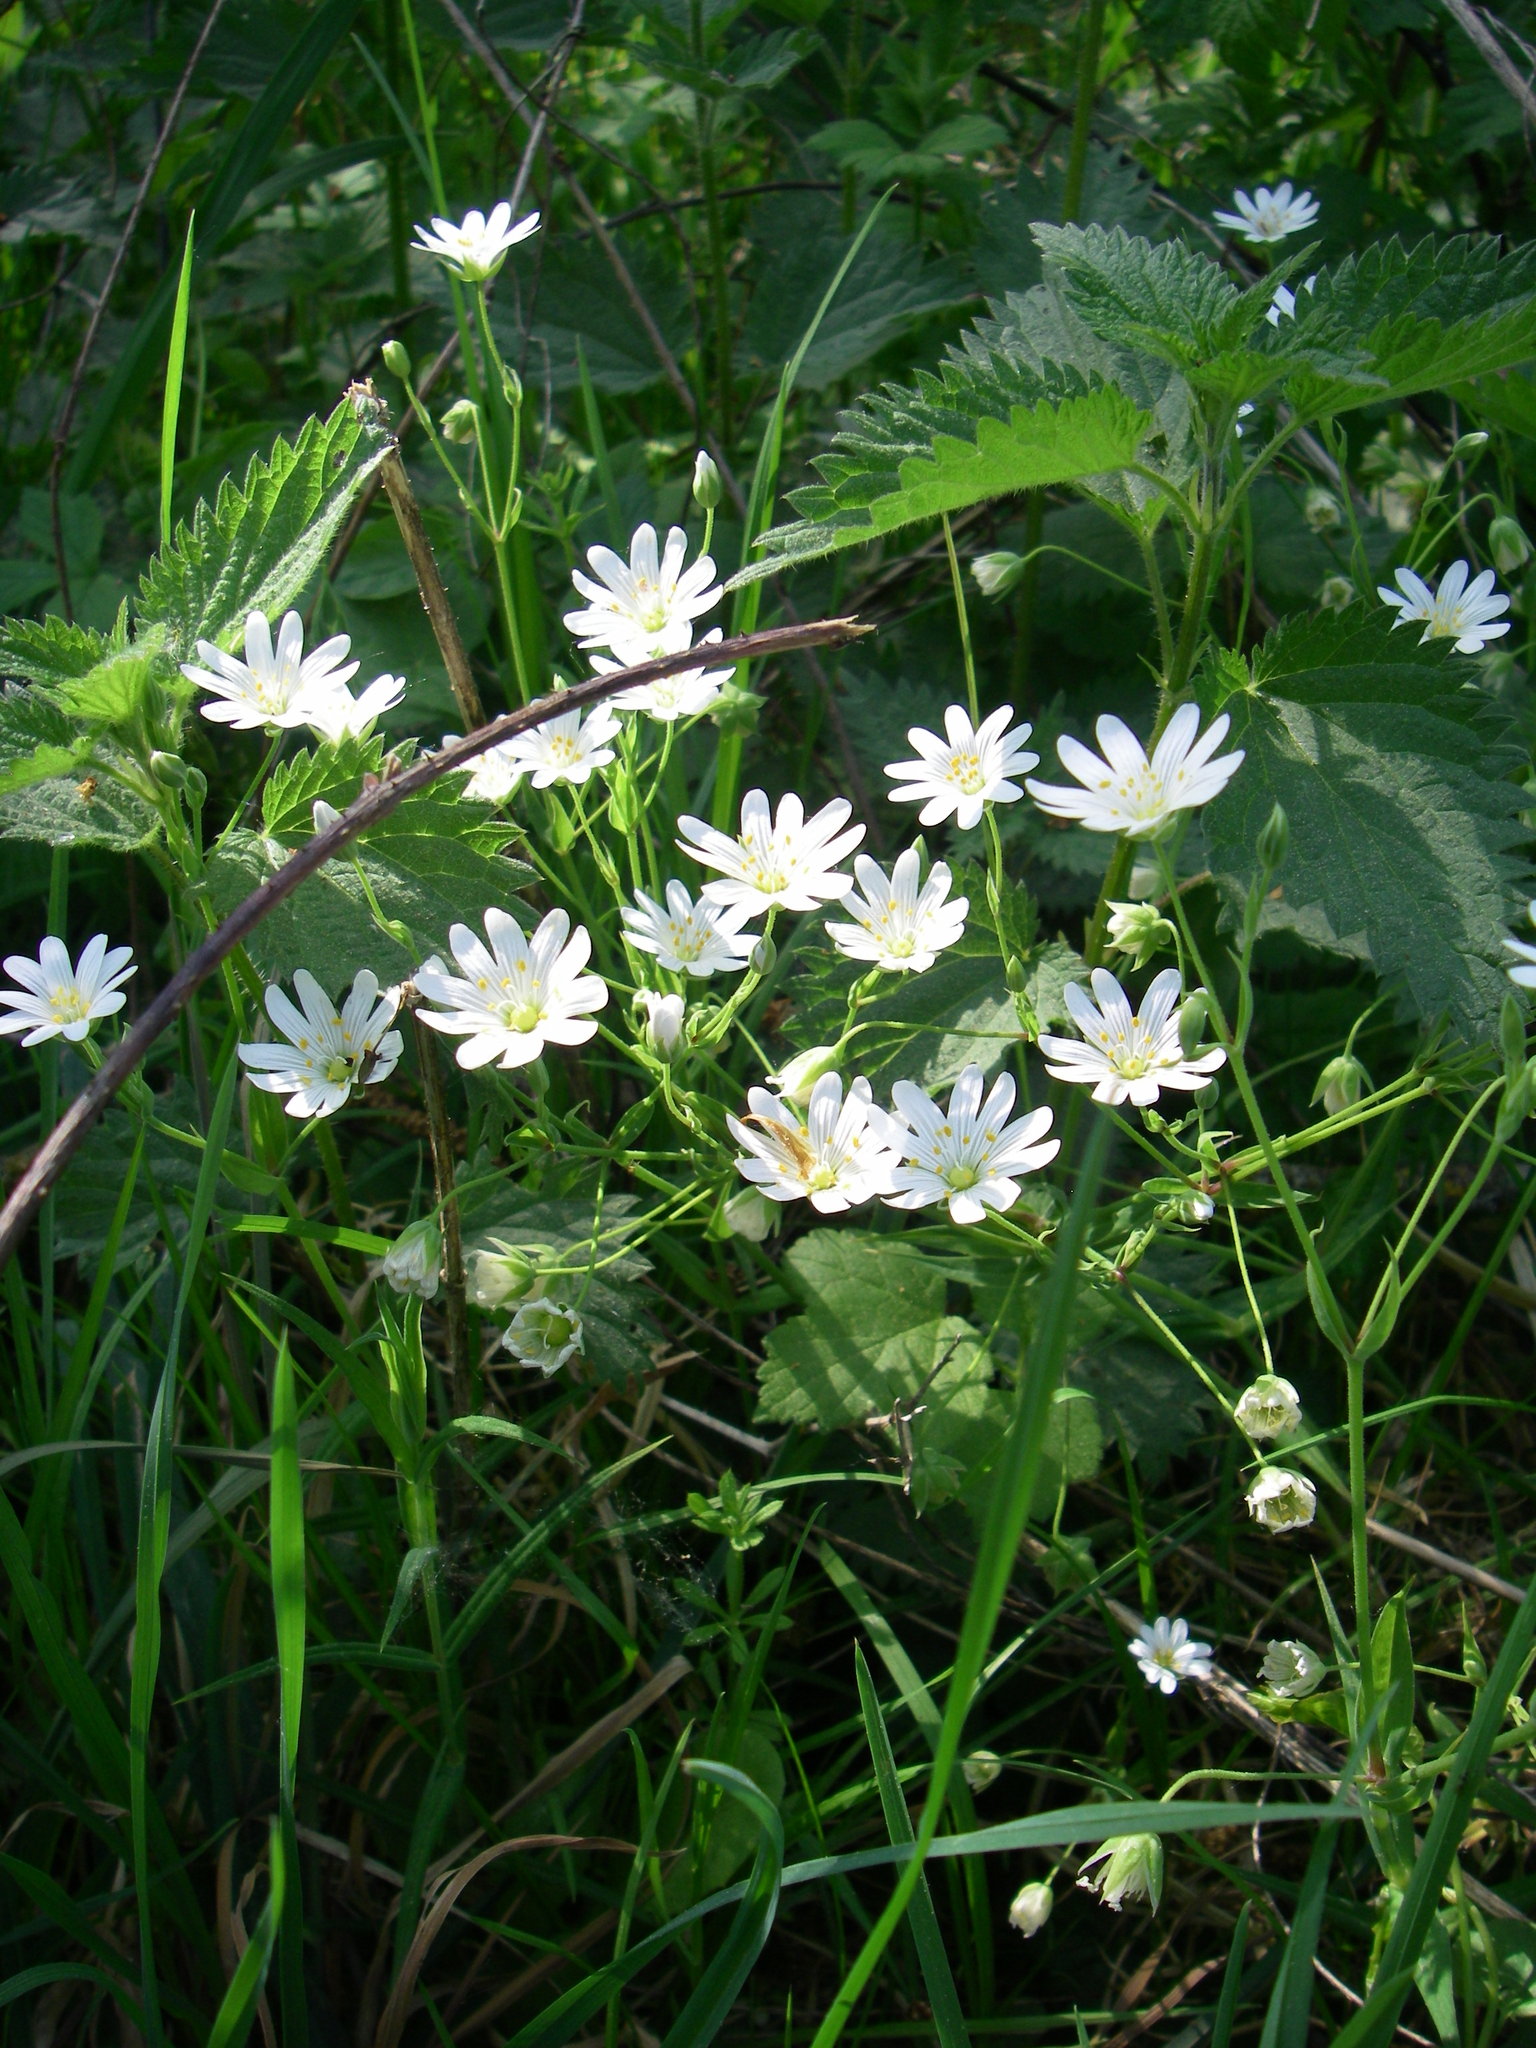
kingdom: Plantae
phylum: Tracheophyta
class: Magnoliopsida
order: Caryophyllales
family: Caryophyllaceae
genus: Rabelera
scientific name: Rabelera holostea
